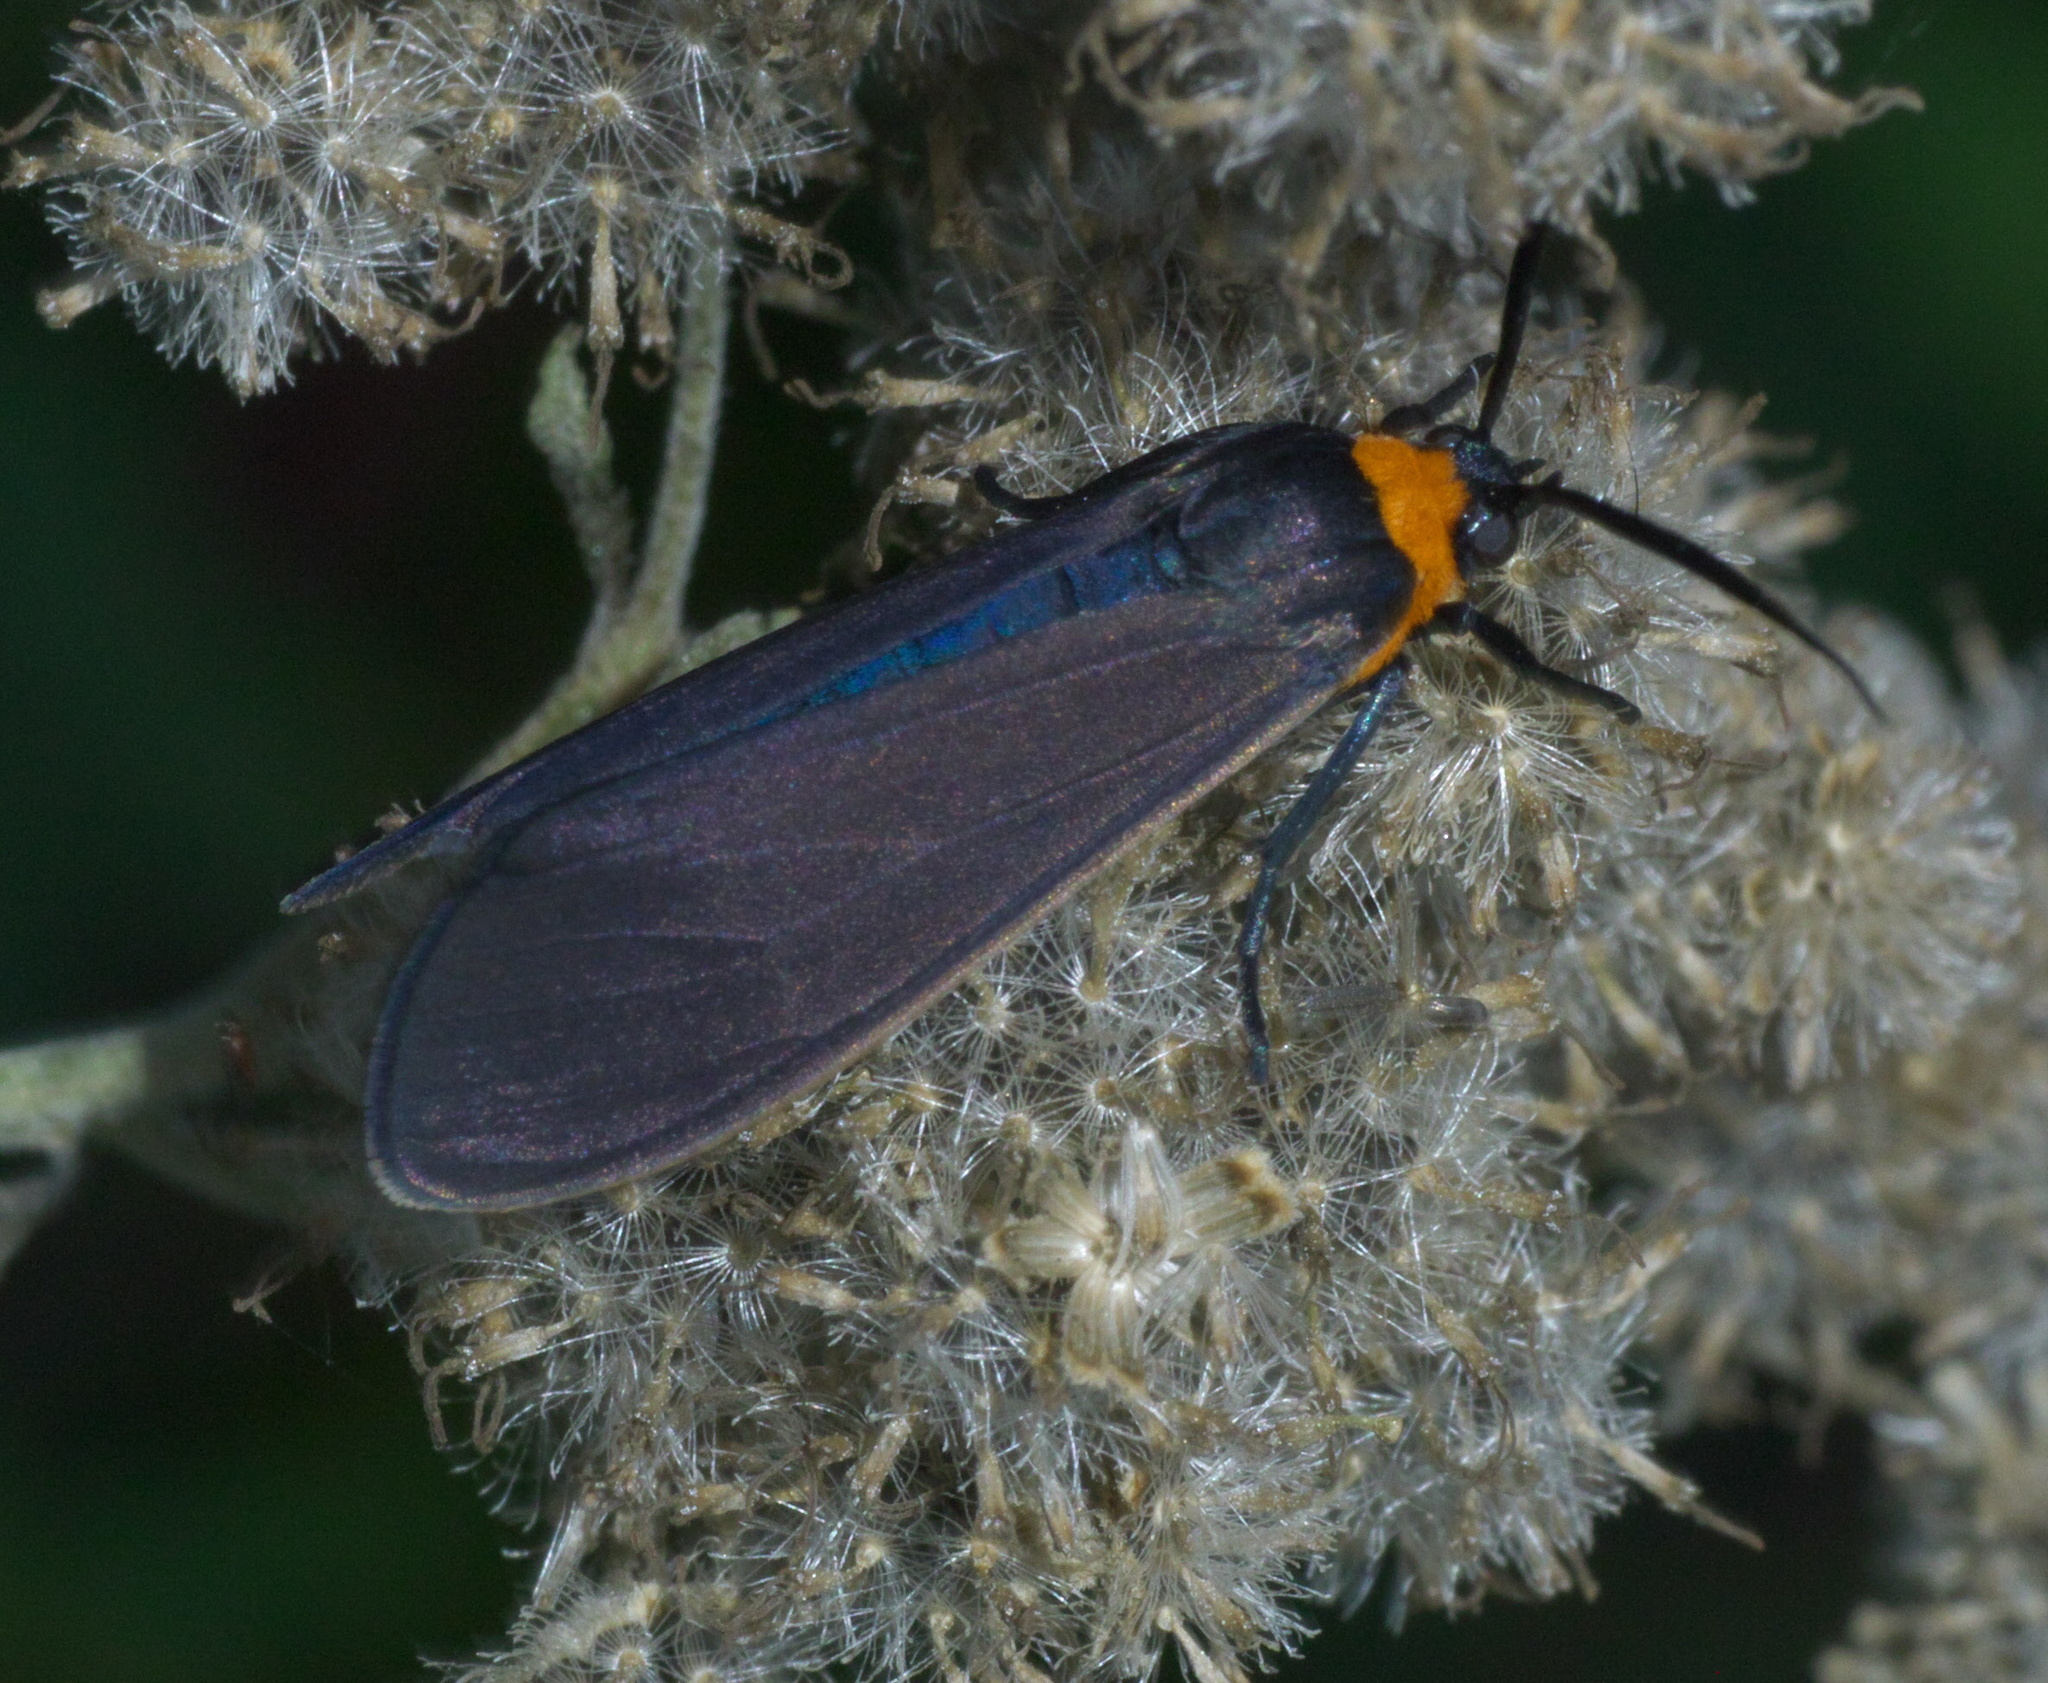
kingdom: Animalia
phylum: Arthropoda
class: Insecta
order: Lepidoptera
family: Erebidae
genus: Cisseps
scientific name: Cisseps fulvicollis
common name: Yellow-collared scape moth
